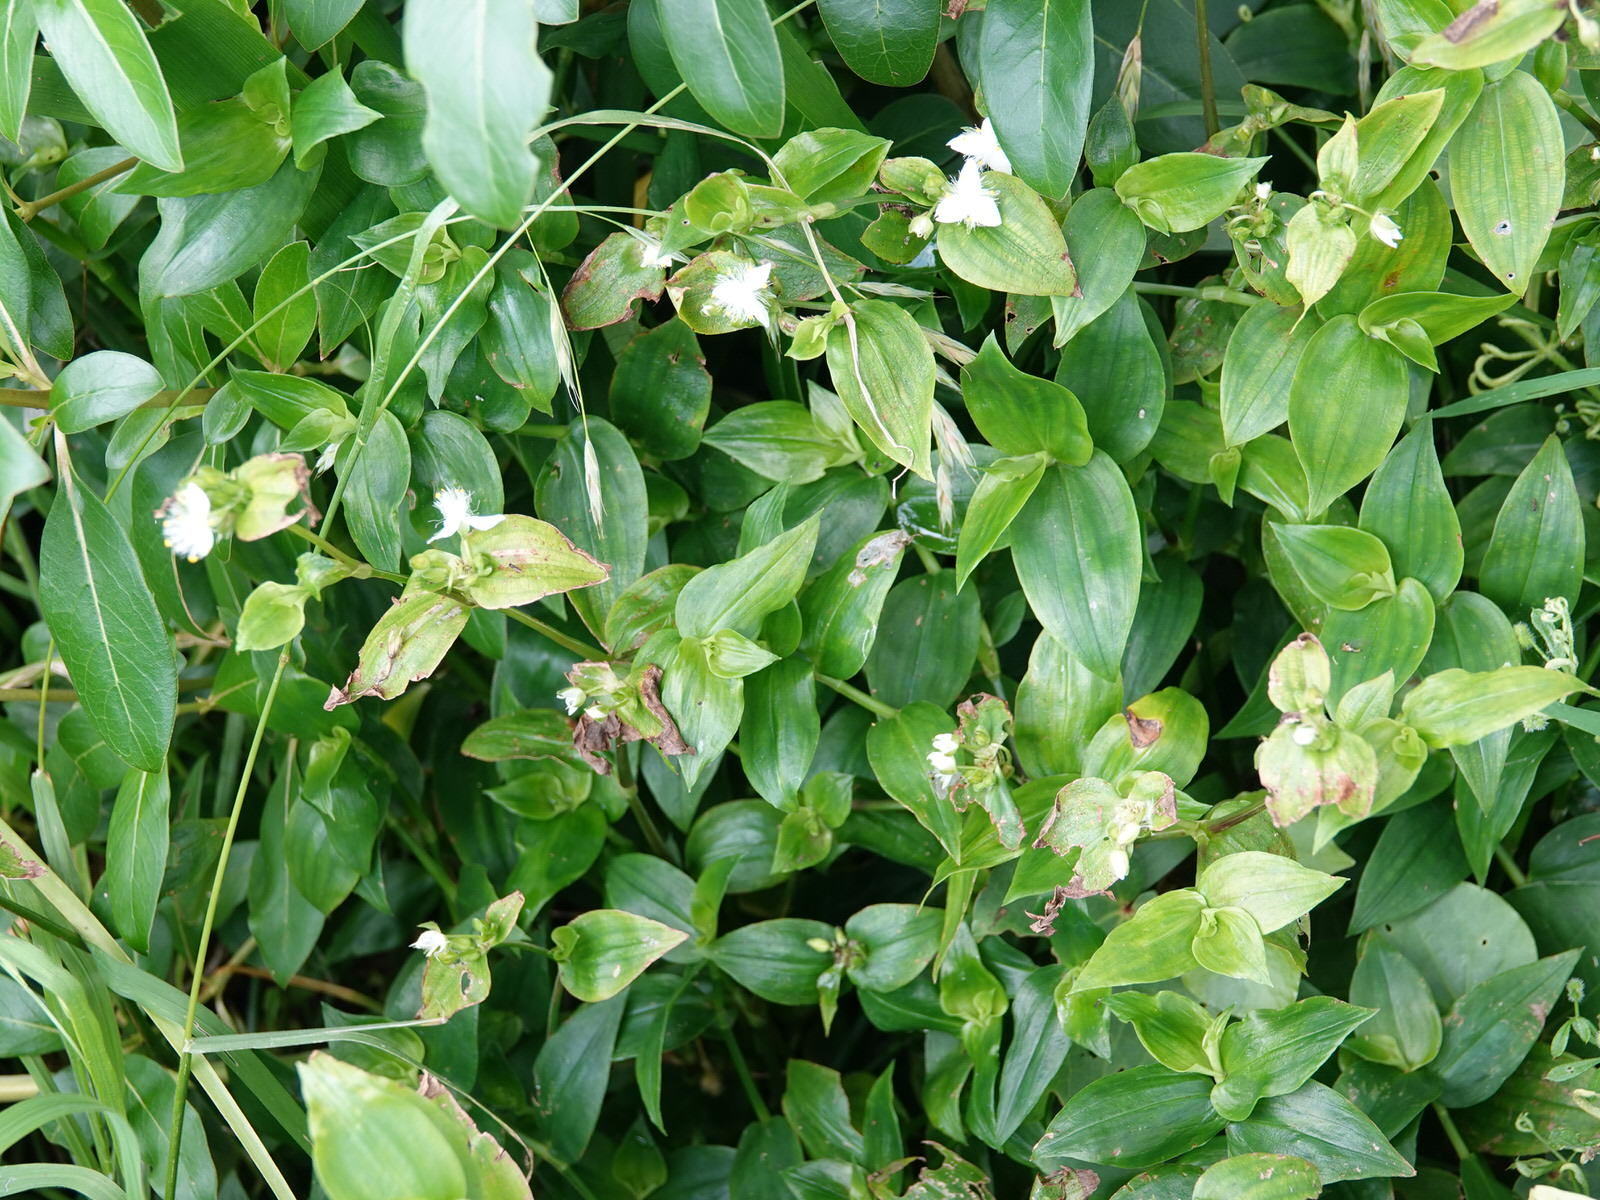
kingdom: Plantae
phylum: Tracheophyta
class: Liliopsida
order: Commelinales
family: Commelinaceae
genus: Tradescantia
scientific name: Tradescantia fluminensis
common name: Wandering-jew
